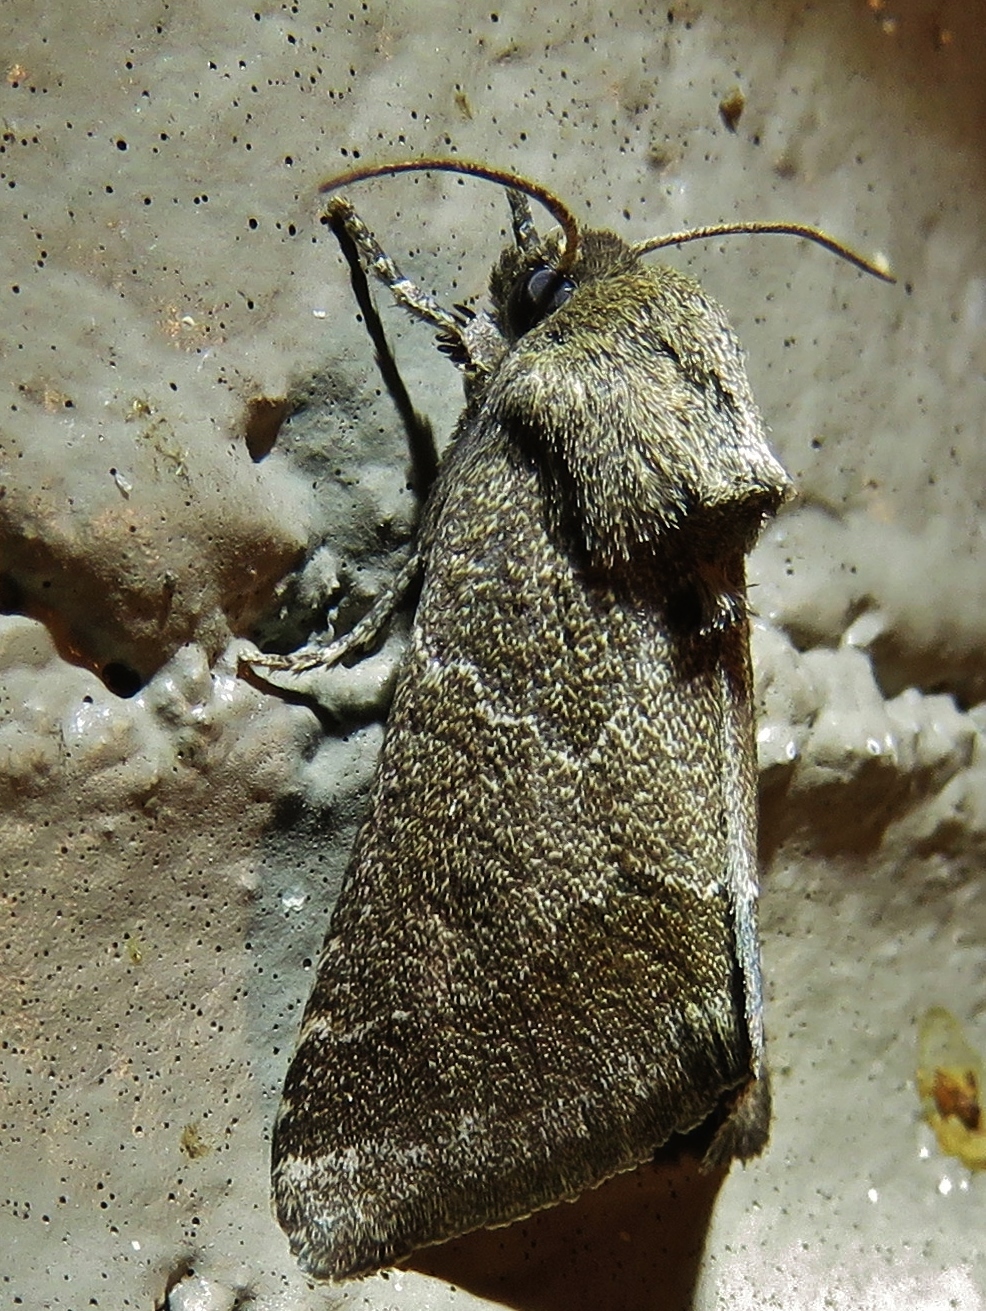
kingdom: Animalia
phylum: Arthropoda
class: Insecta
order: Lepidoptera
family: Noctuidae
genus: Schinia
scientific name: Schinia thoreaui
